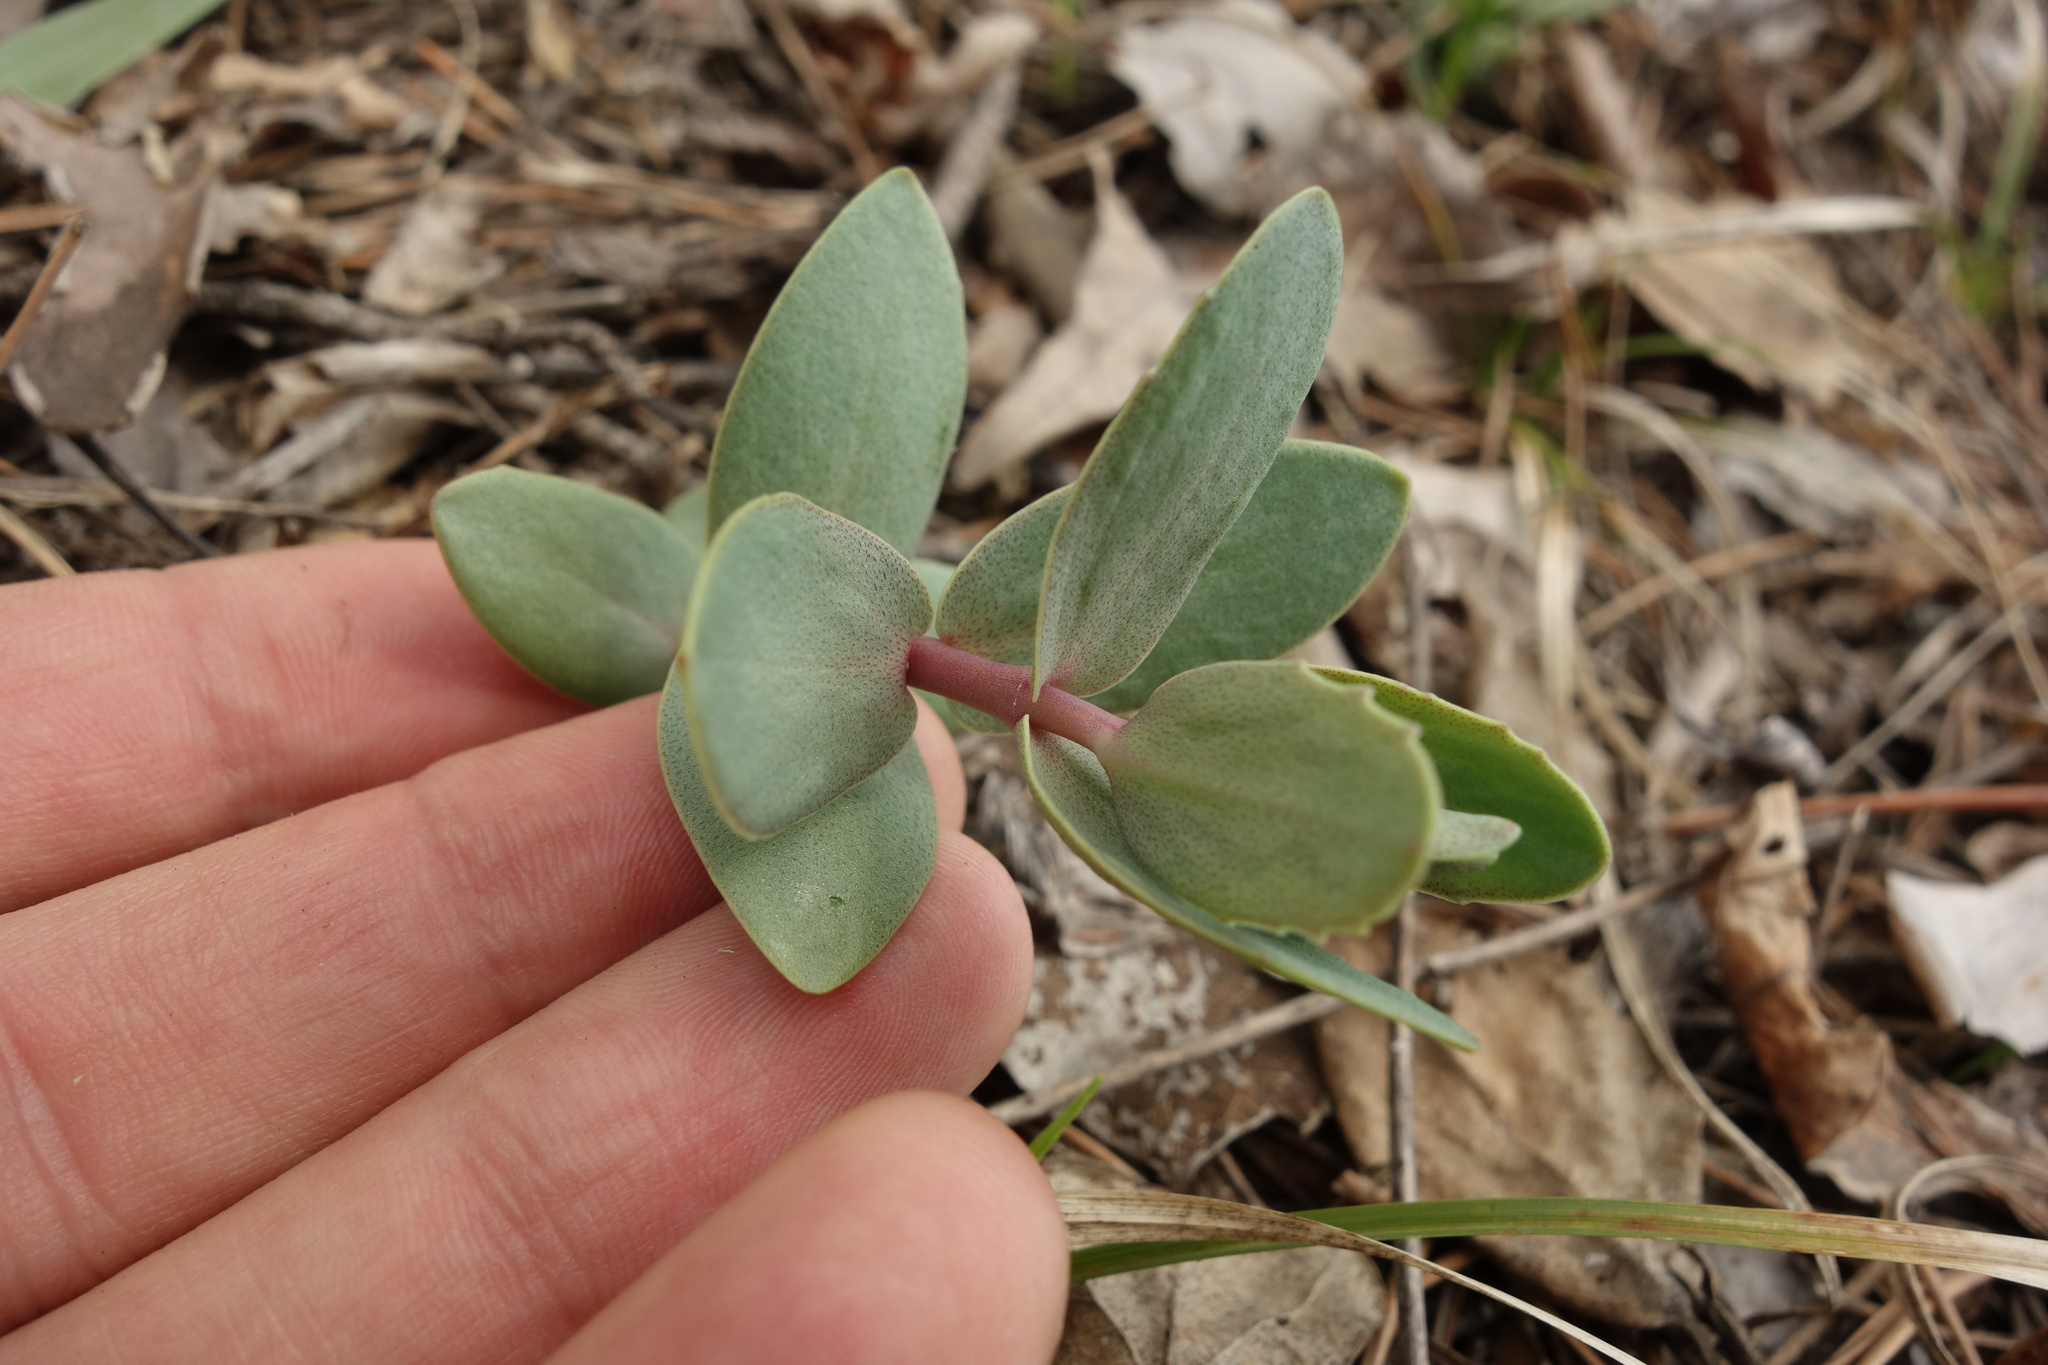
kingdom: Plantae
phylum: Tracheophyta
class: Magnoliopsida
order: Saxifragales
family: Crassulaceae
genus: Hylotelephium
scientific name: Hylotelephium maximum
